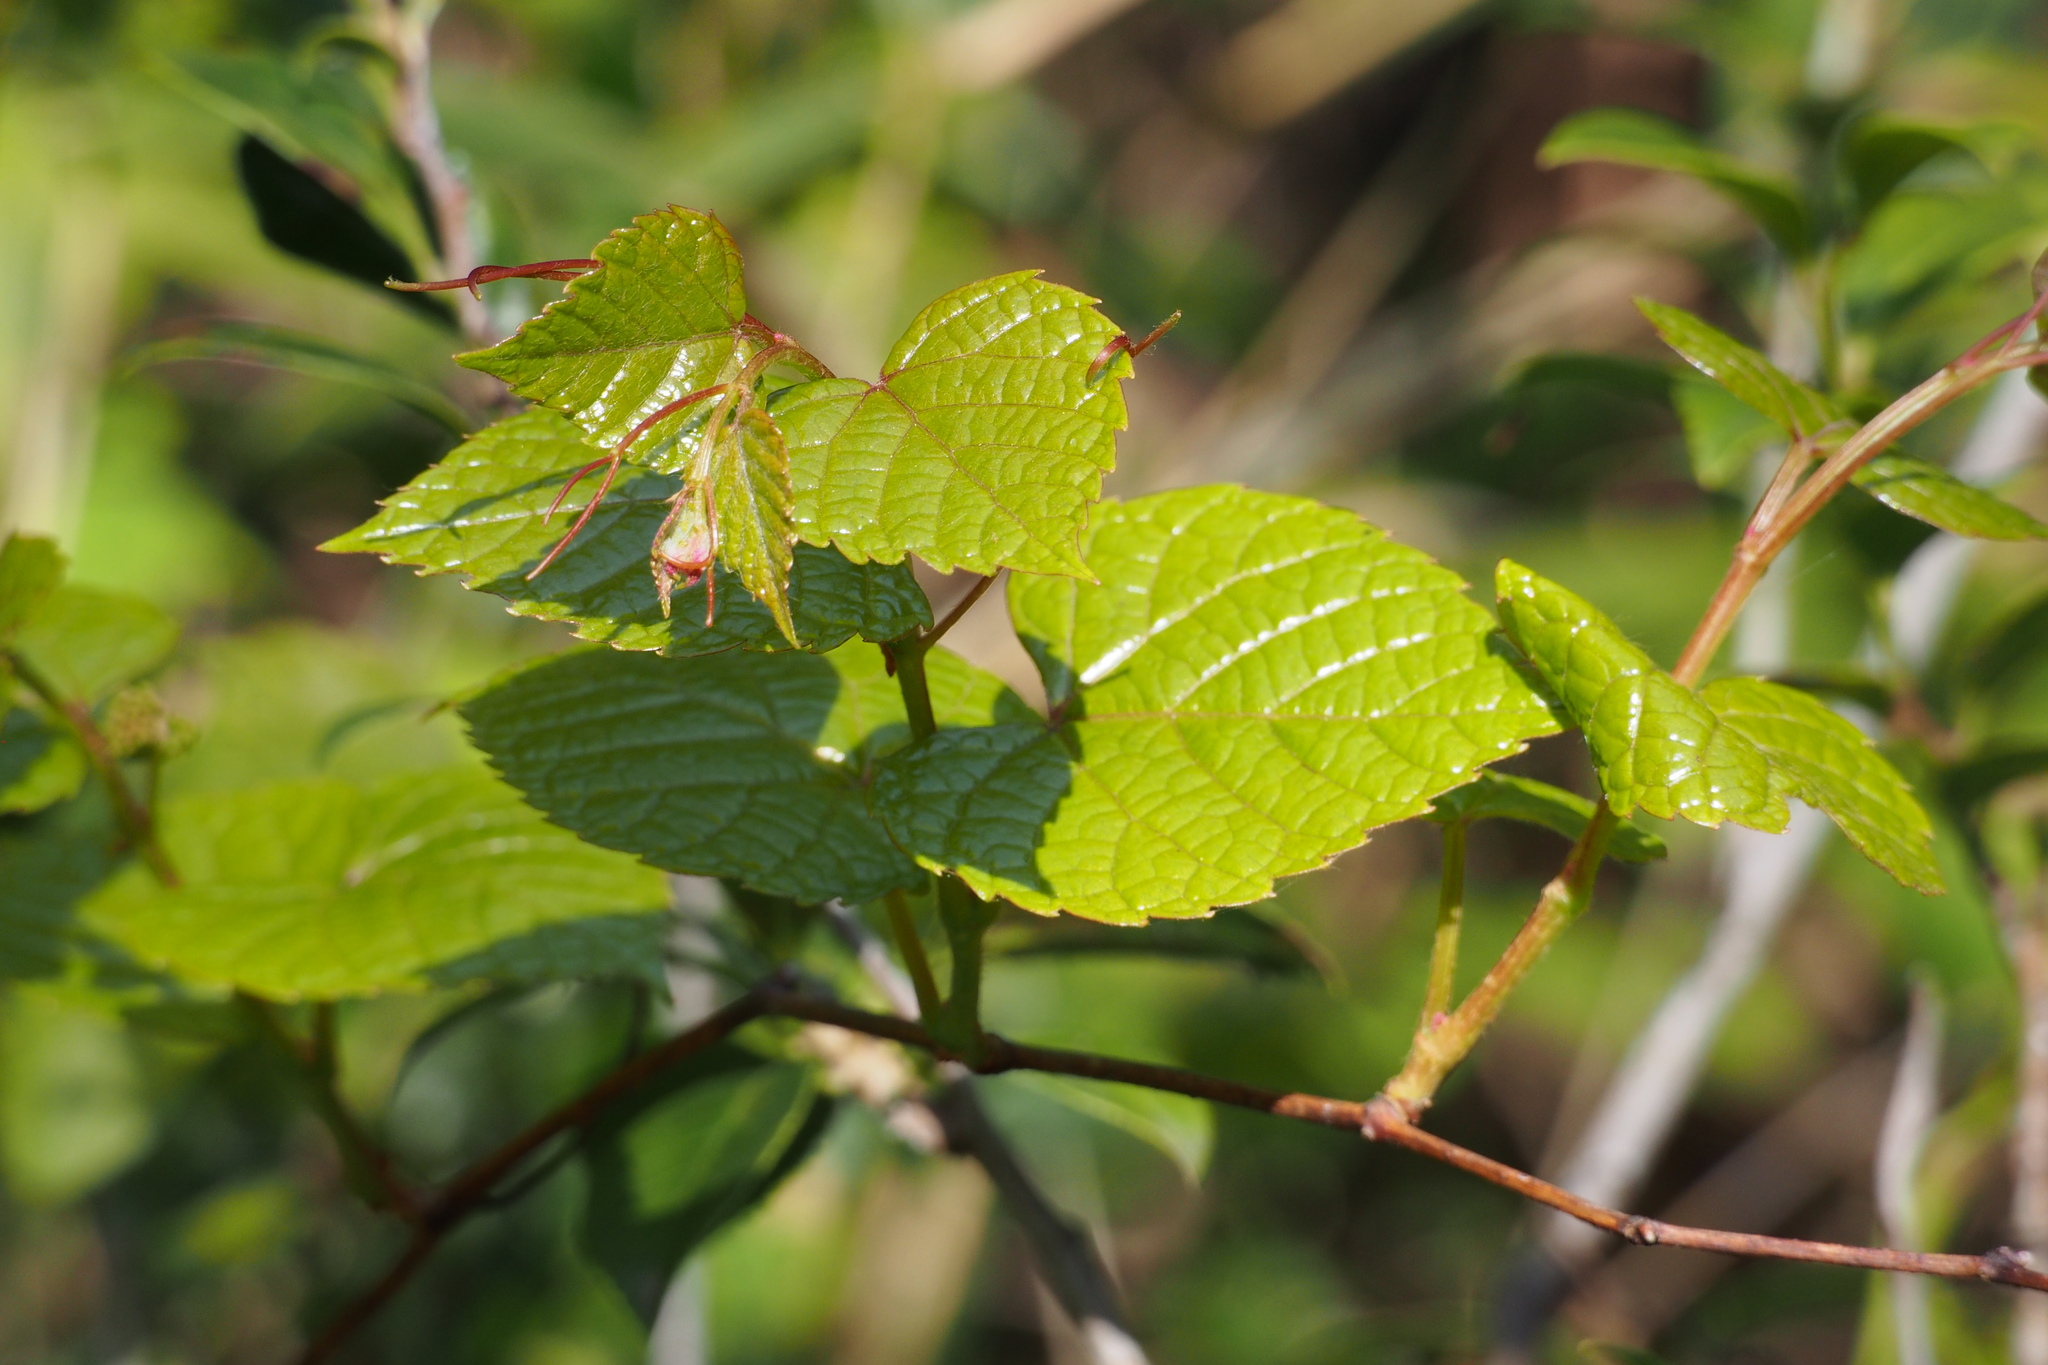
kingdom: Plantae
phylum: Tracheophyta
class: Magnoliopsida
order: Vitales
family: Vitaceae
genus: Vitis
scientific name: Vitis saccharifera
